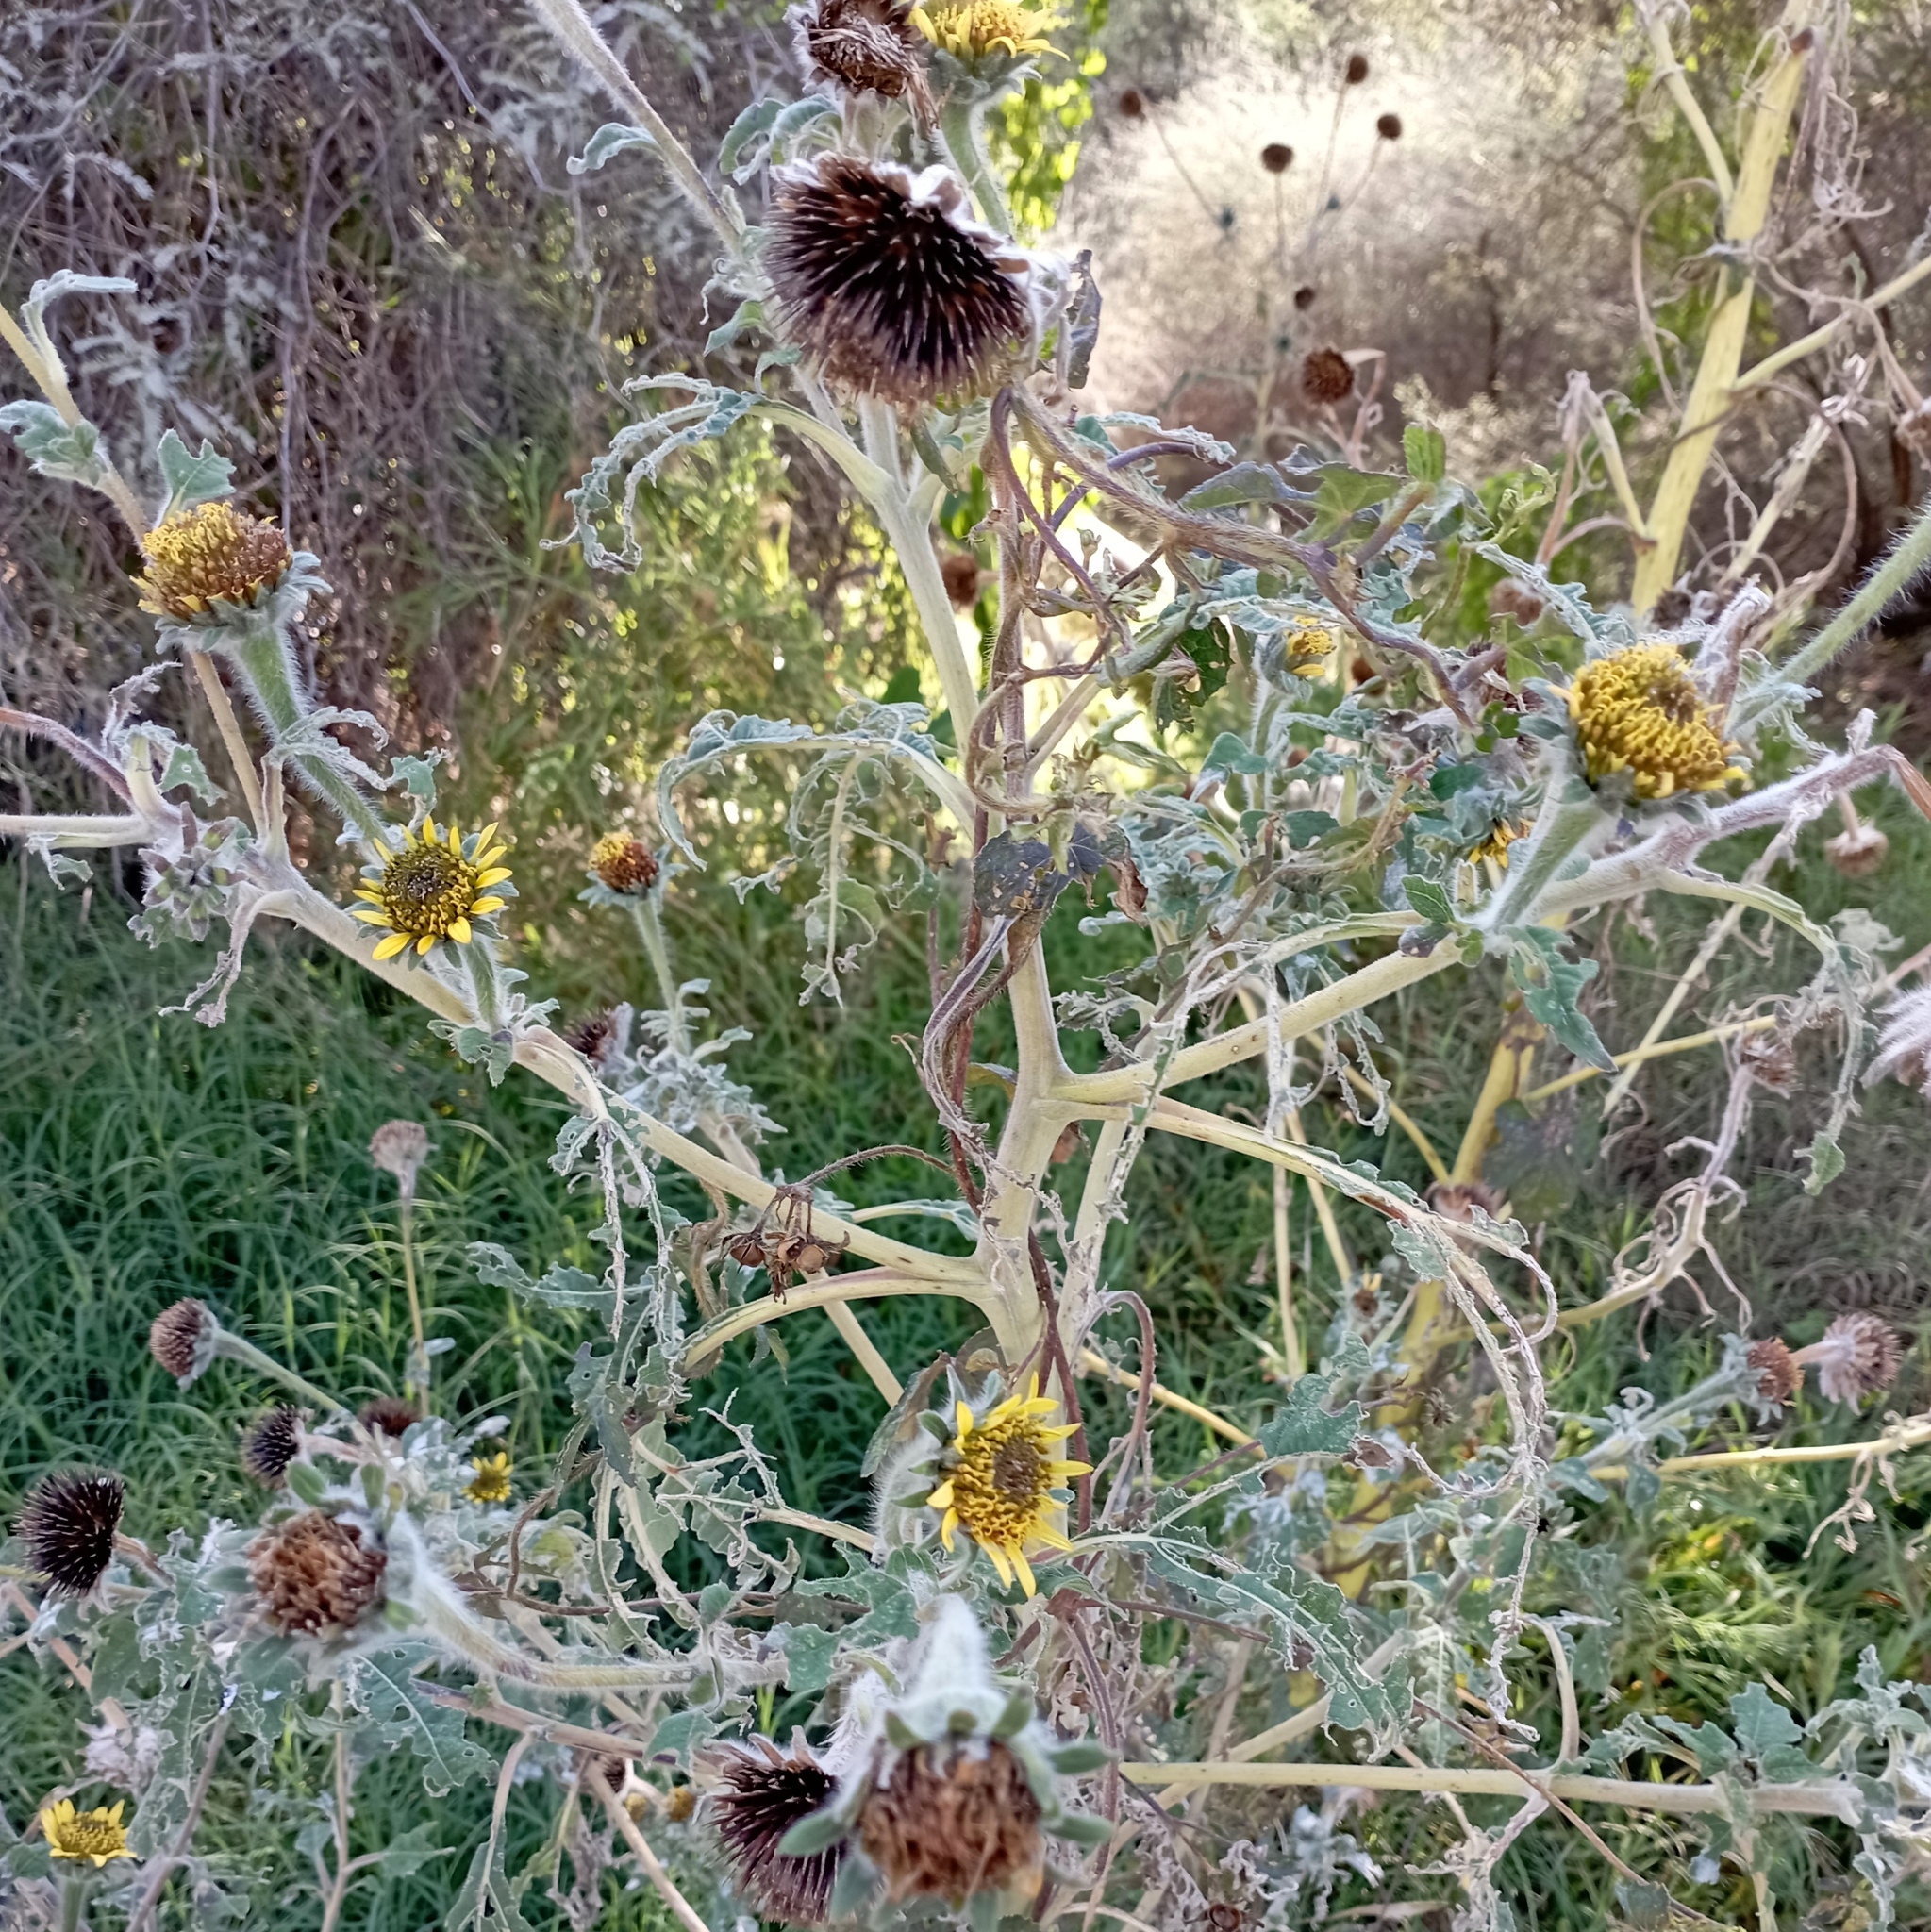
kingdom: Plantae
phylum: Tracheophyta
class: Magnoliopsida
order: Asterales
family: Asteraceae
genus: Tithonia
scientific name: Tithonia tubaeformis
